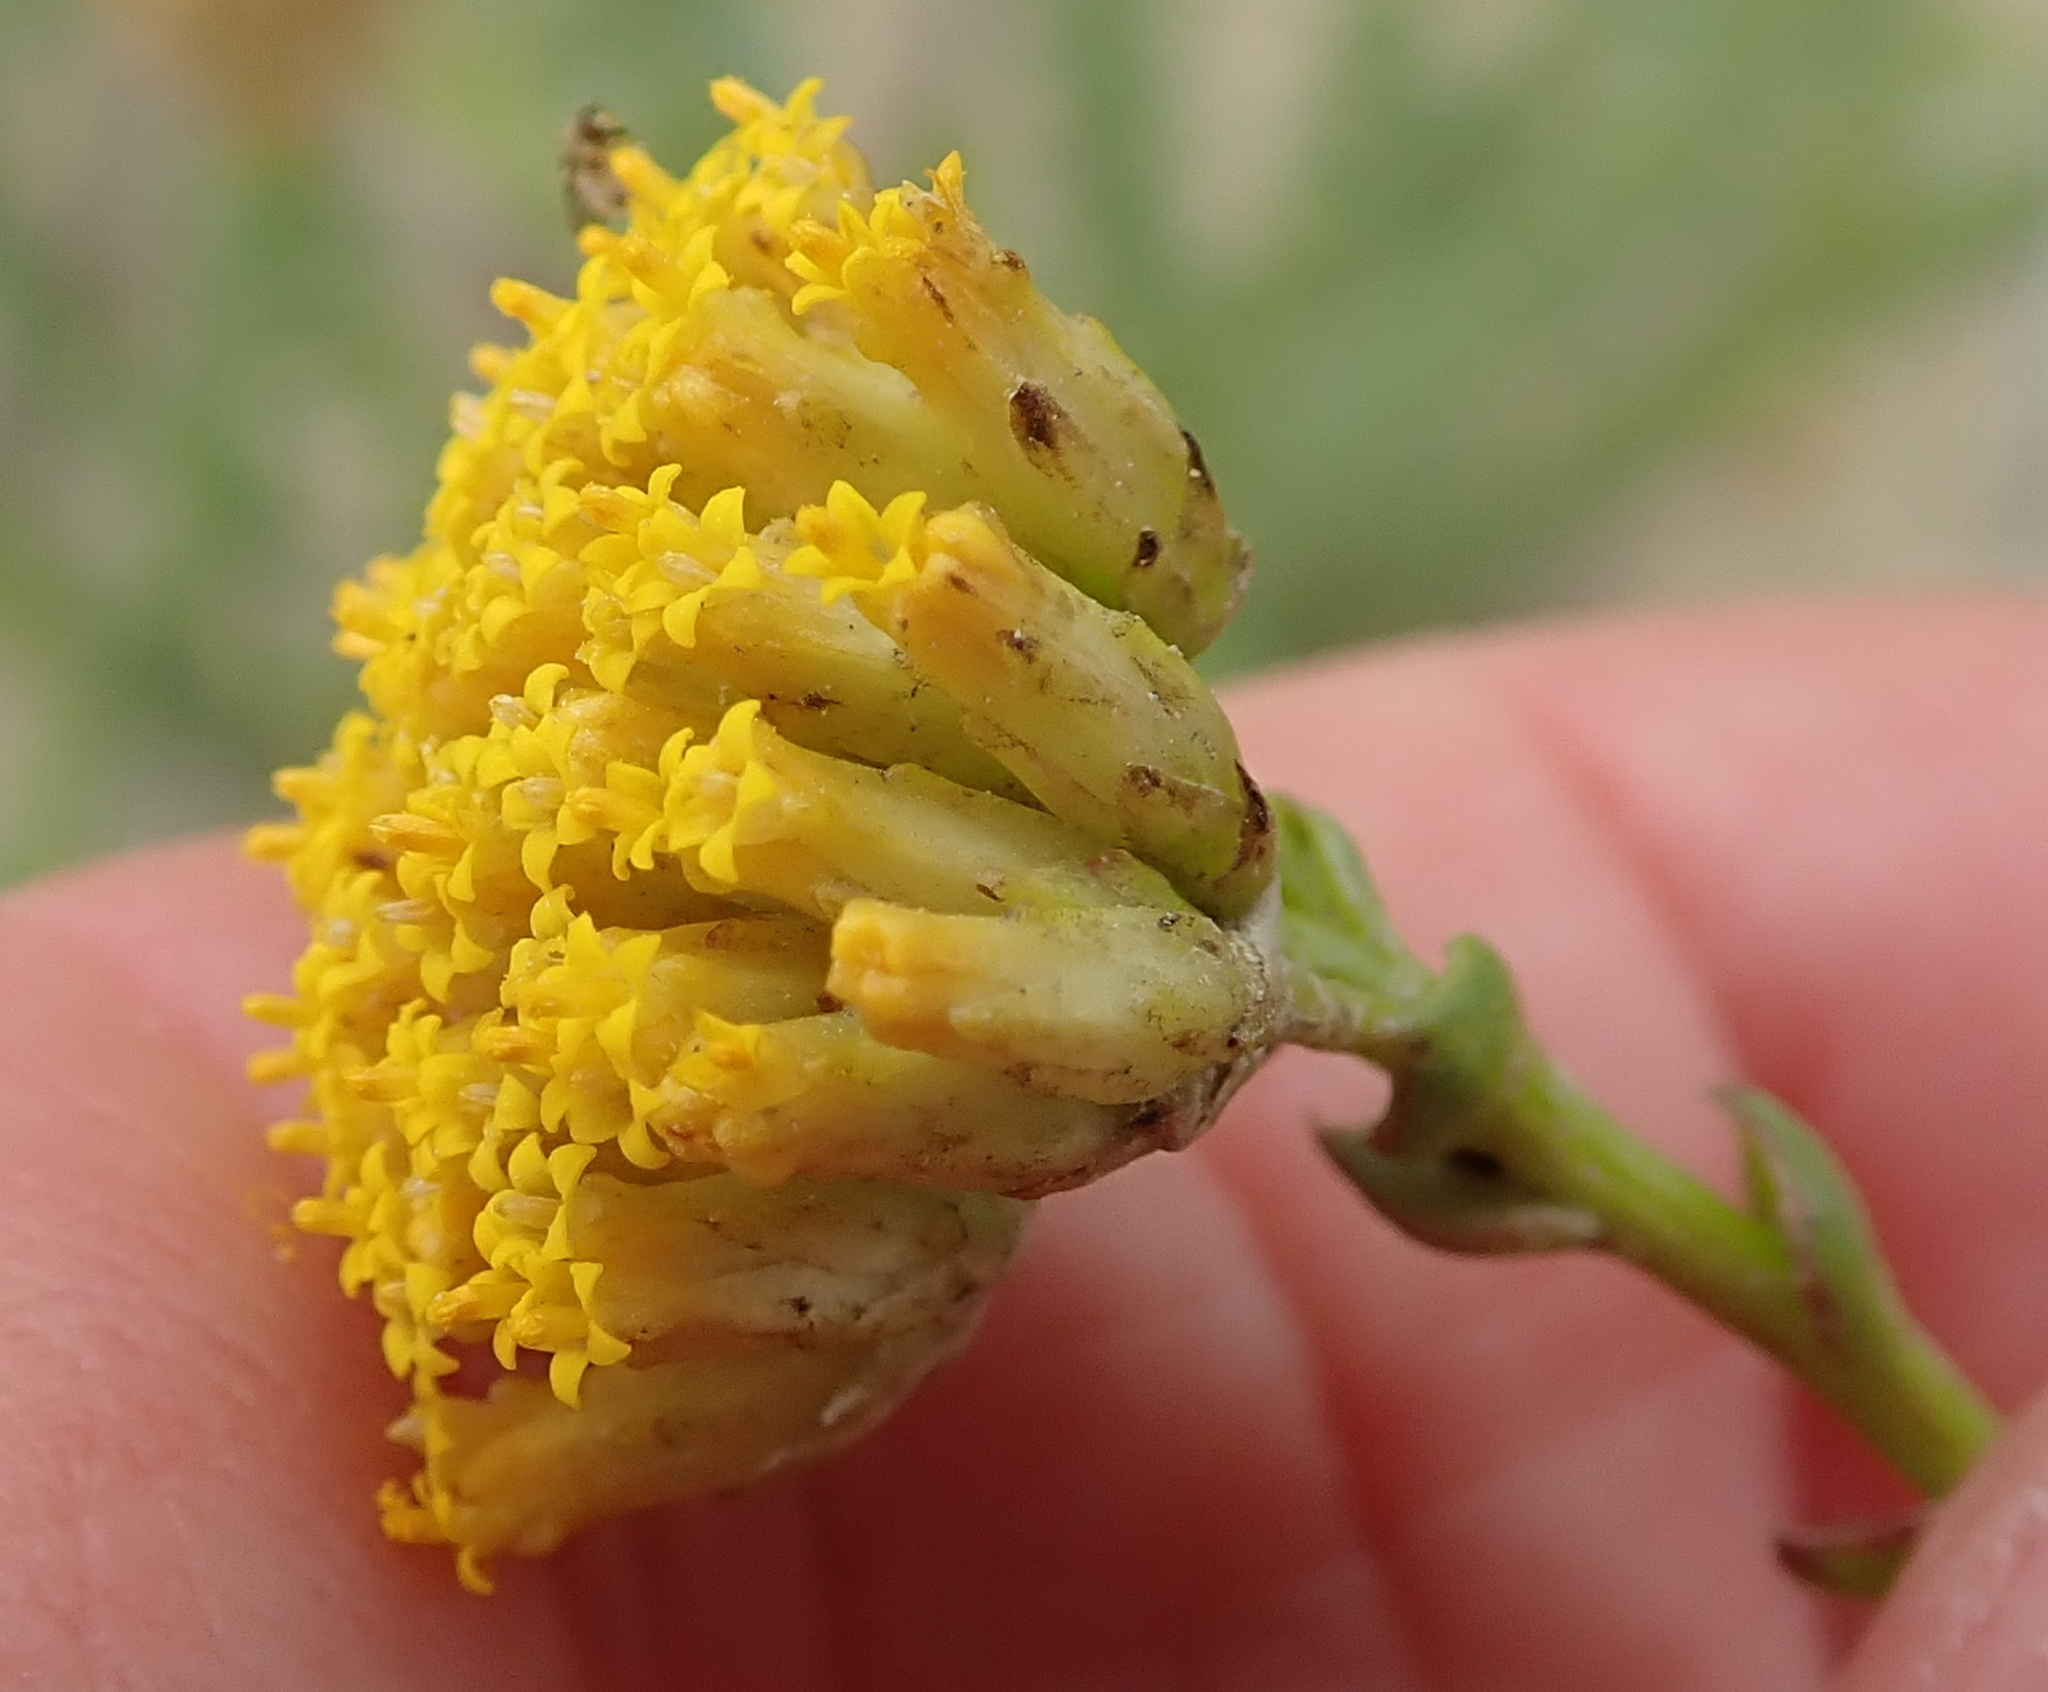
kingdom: Plantae
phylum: Tracheophyta
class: Magnoliopsida
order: Asterales
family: Asteraceae
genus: Athanasia
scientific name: Athanasia dentata
